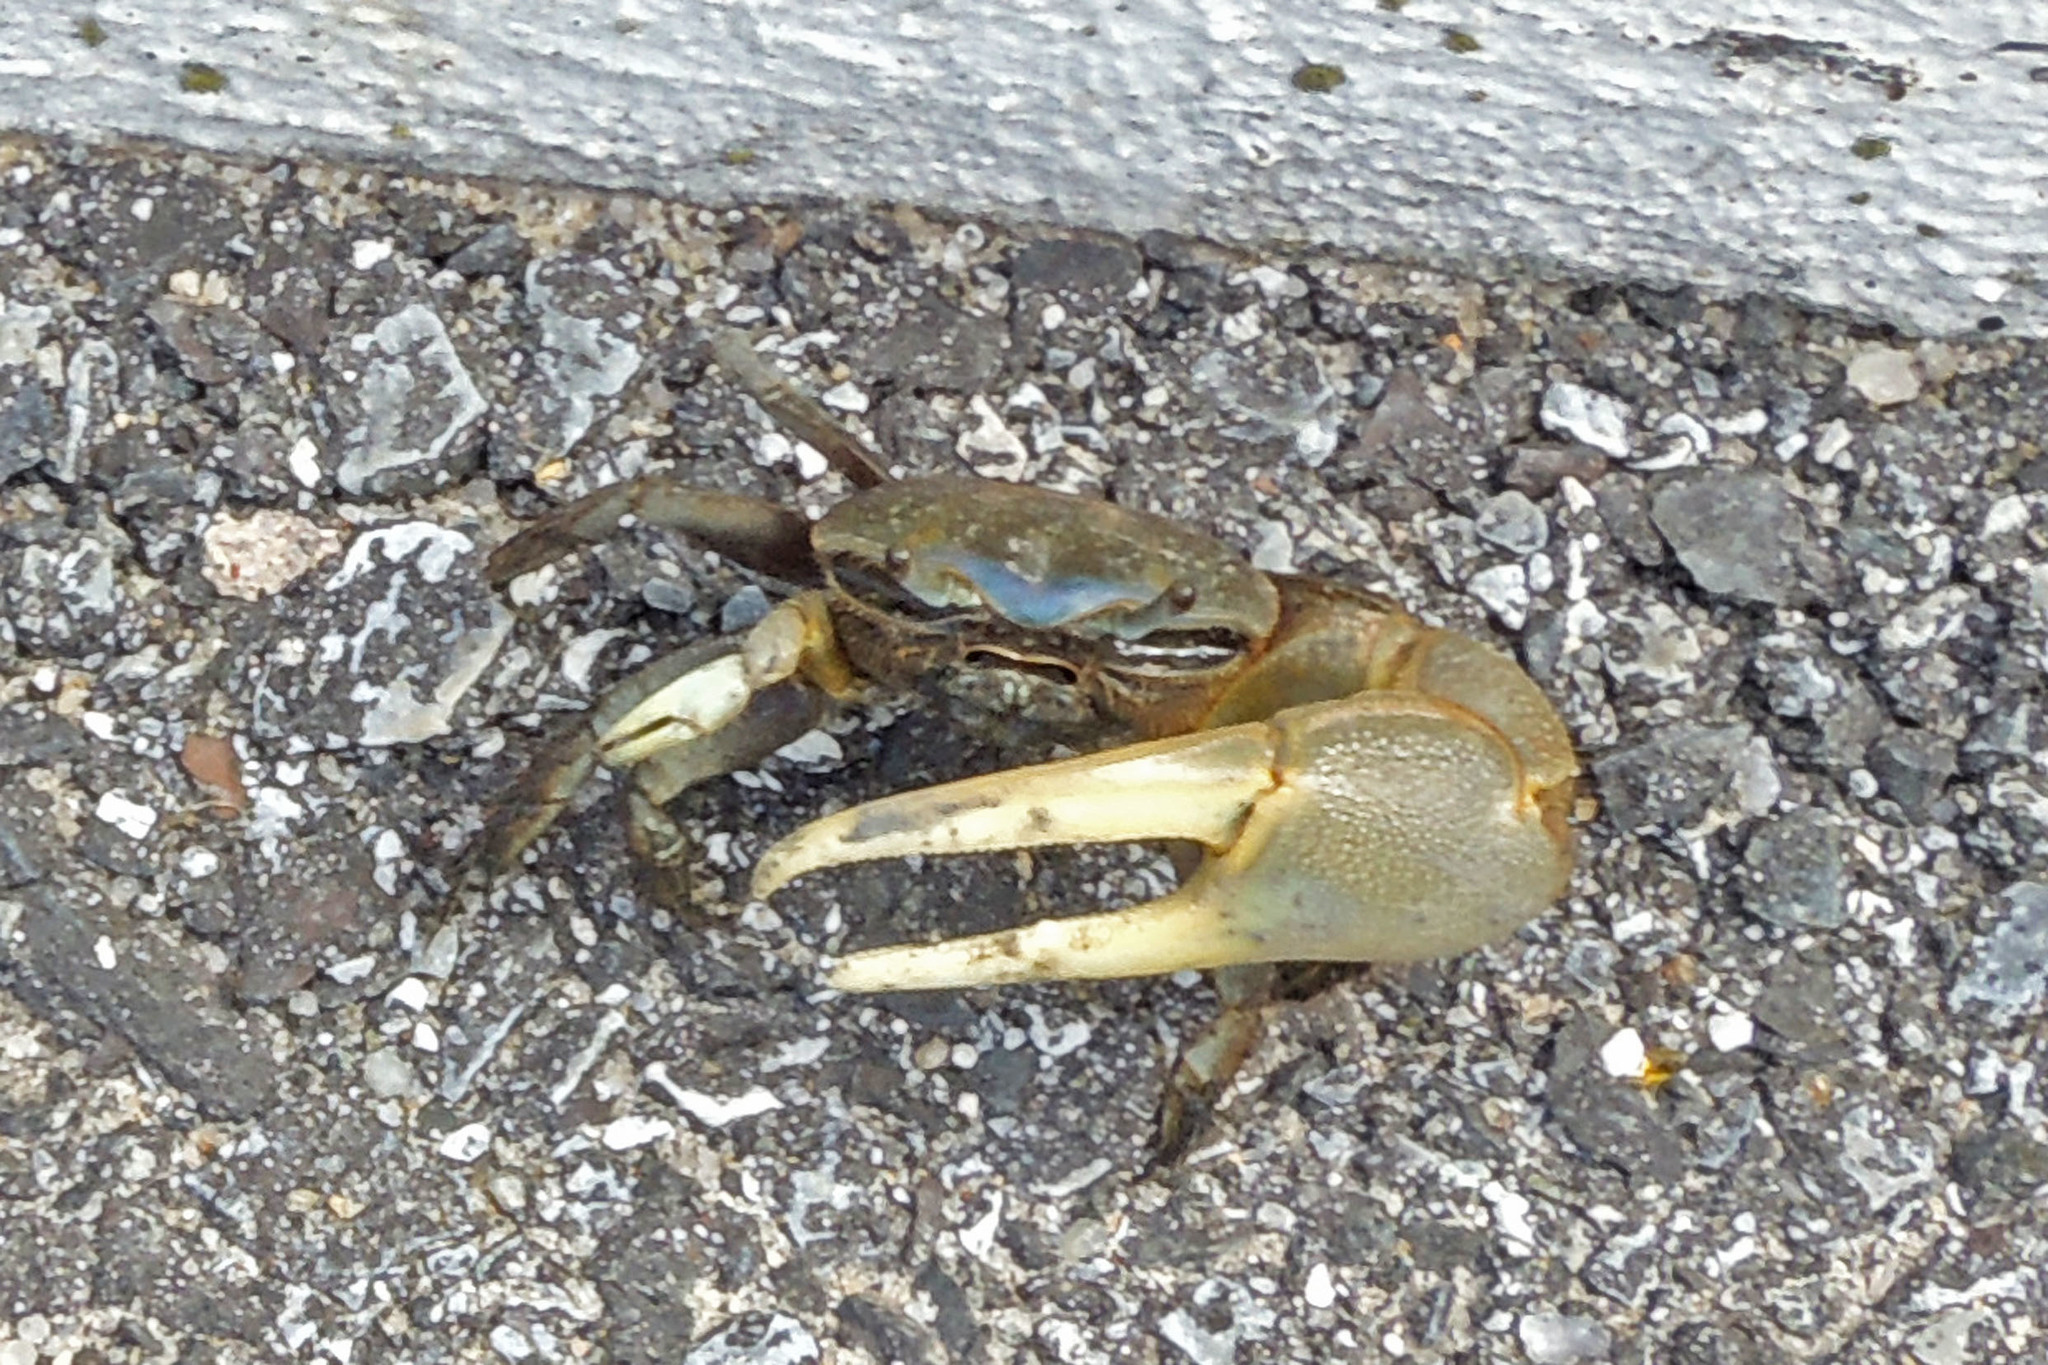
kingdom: Animalia
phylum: Arthropoda
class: Malacostraca
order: Decapoda
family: Ocypodidae
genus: Minuca
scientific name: Minuca pugnax
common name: Mud fiddler crab
